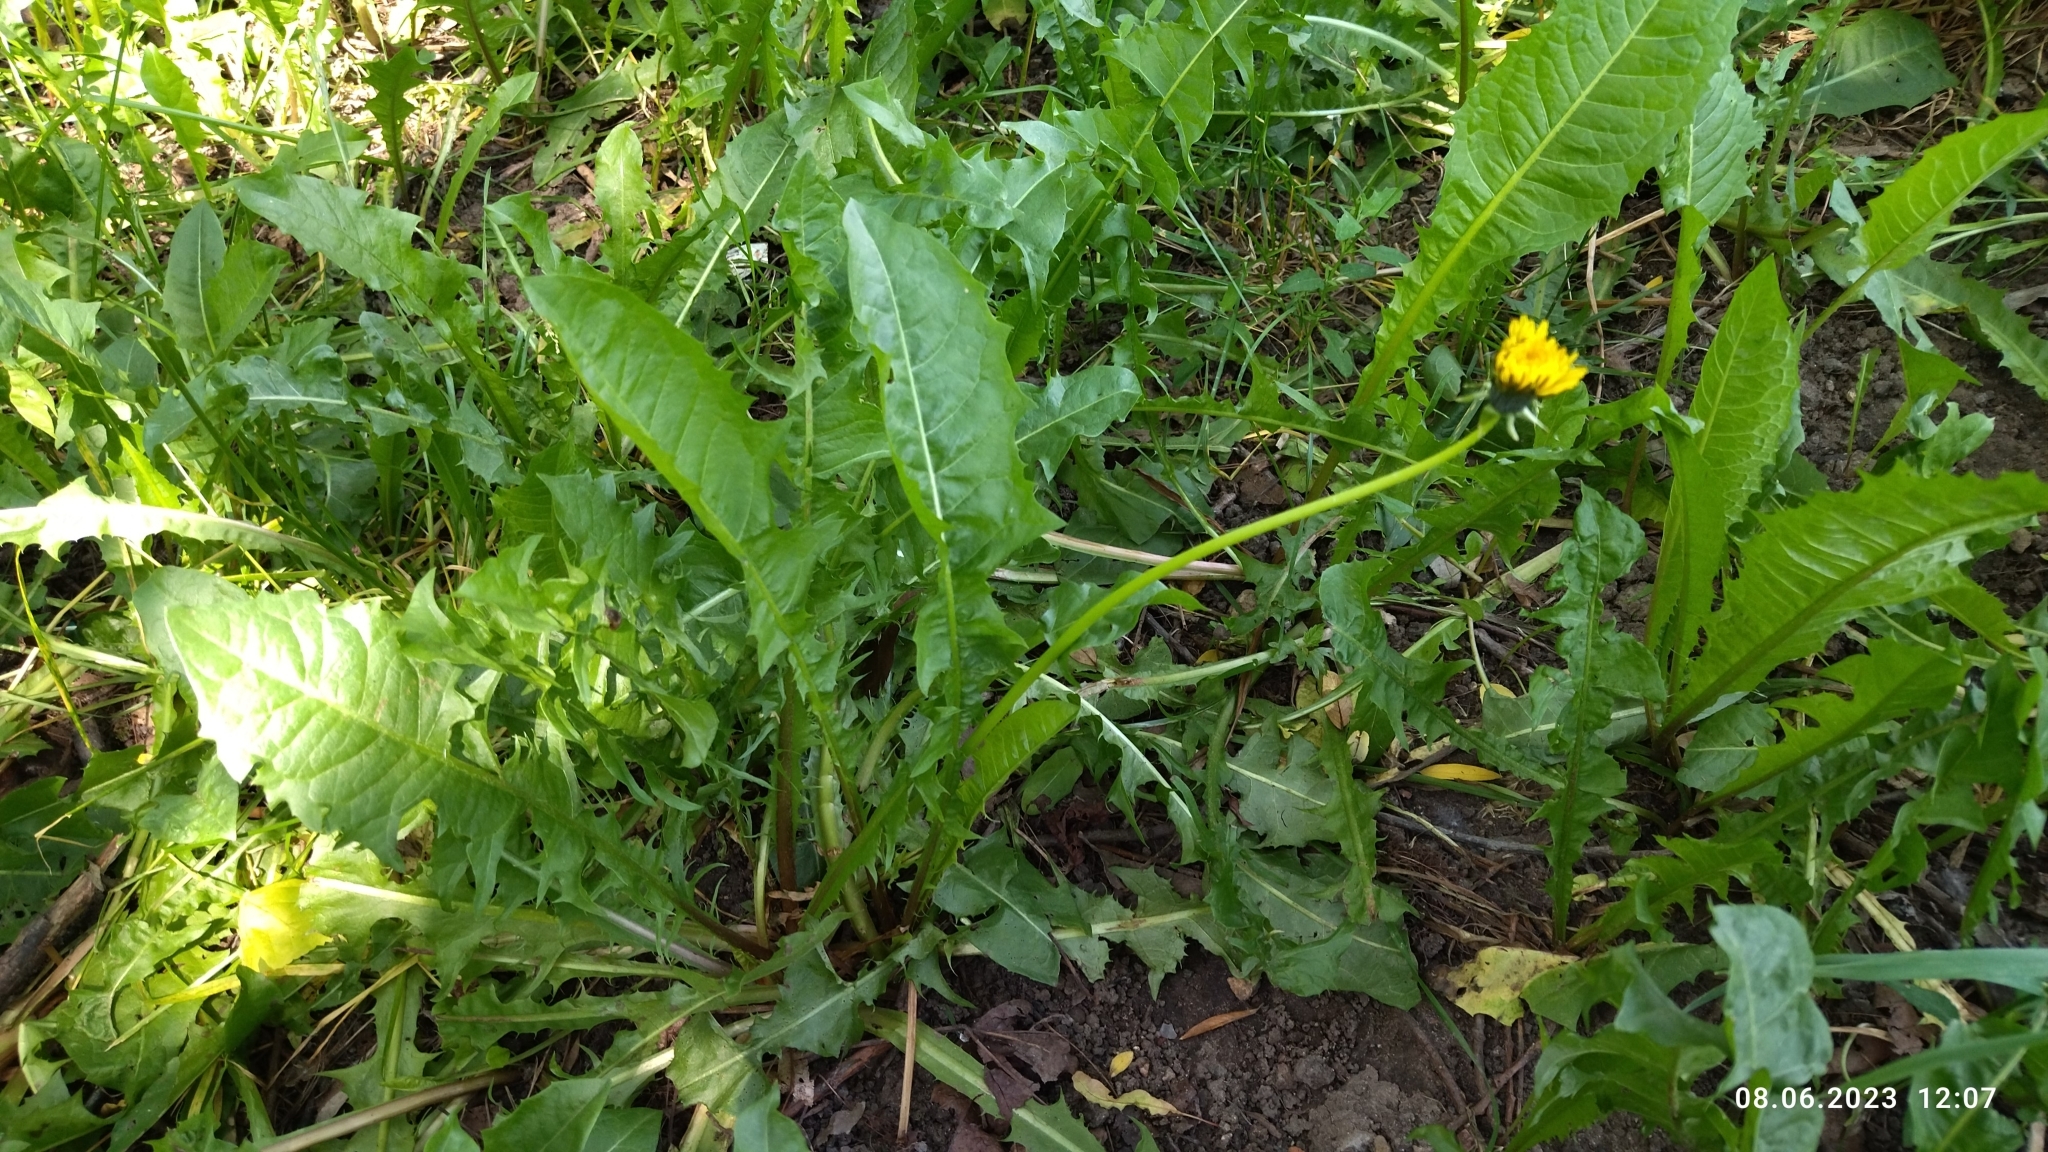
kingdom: Plantae
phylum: Tracheophyta
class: Magnoliopsida
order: Asterales
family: Asteraceae
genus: Taraxacum
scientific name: Taraxacum officinale
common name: Common dandelion
